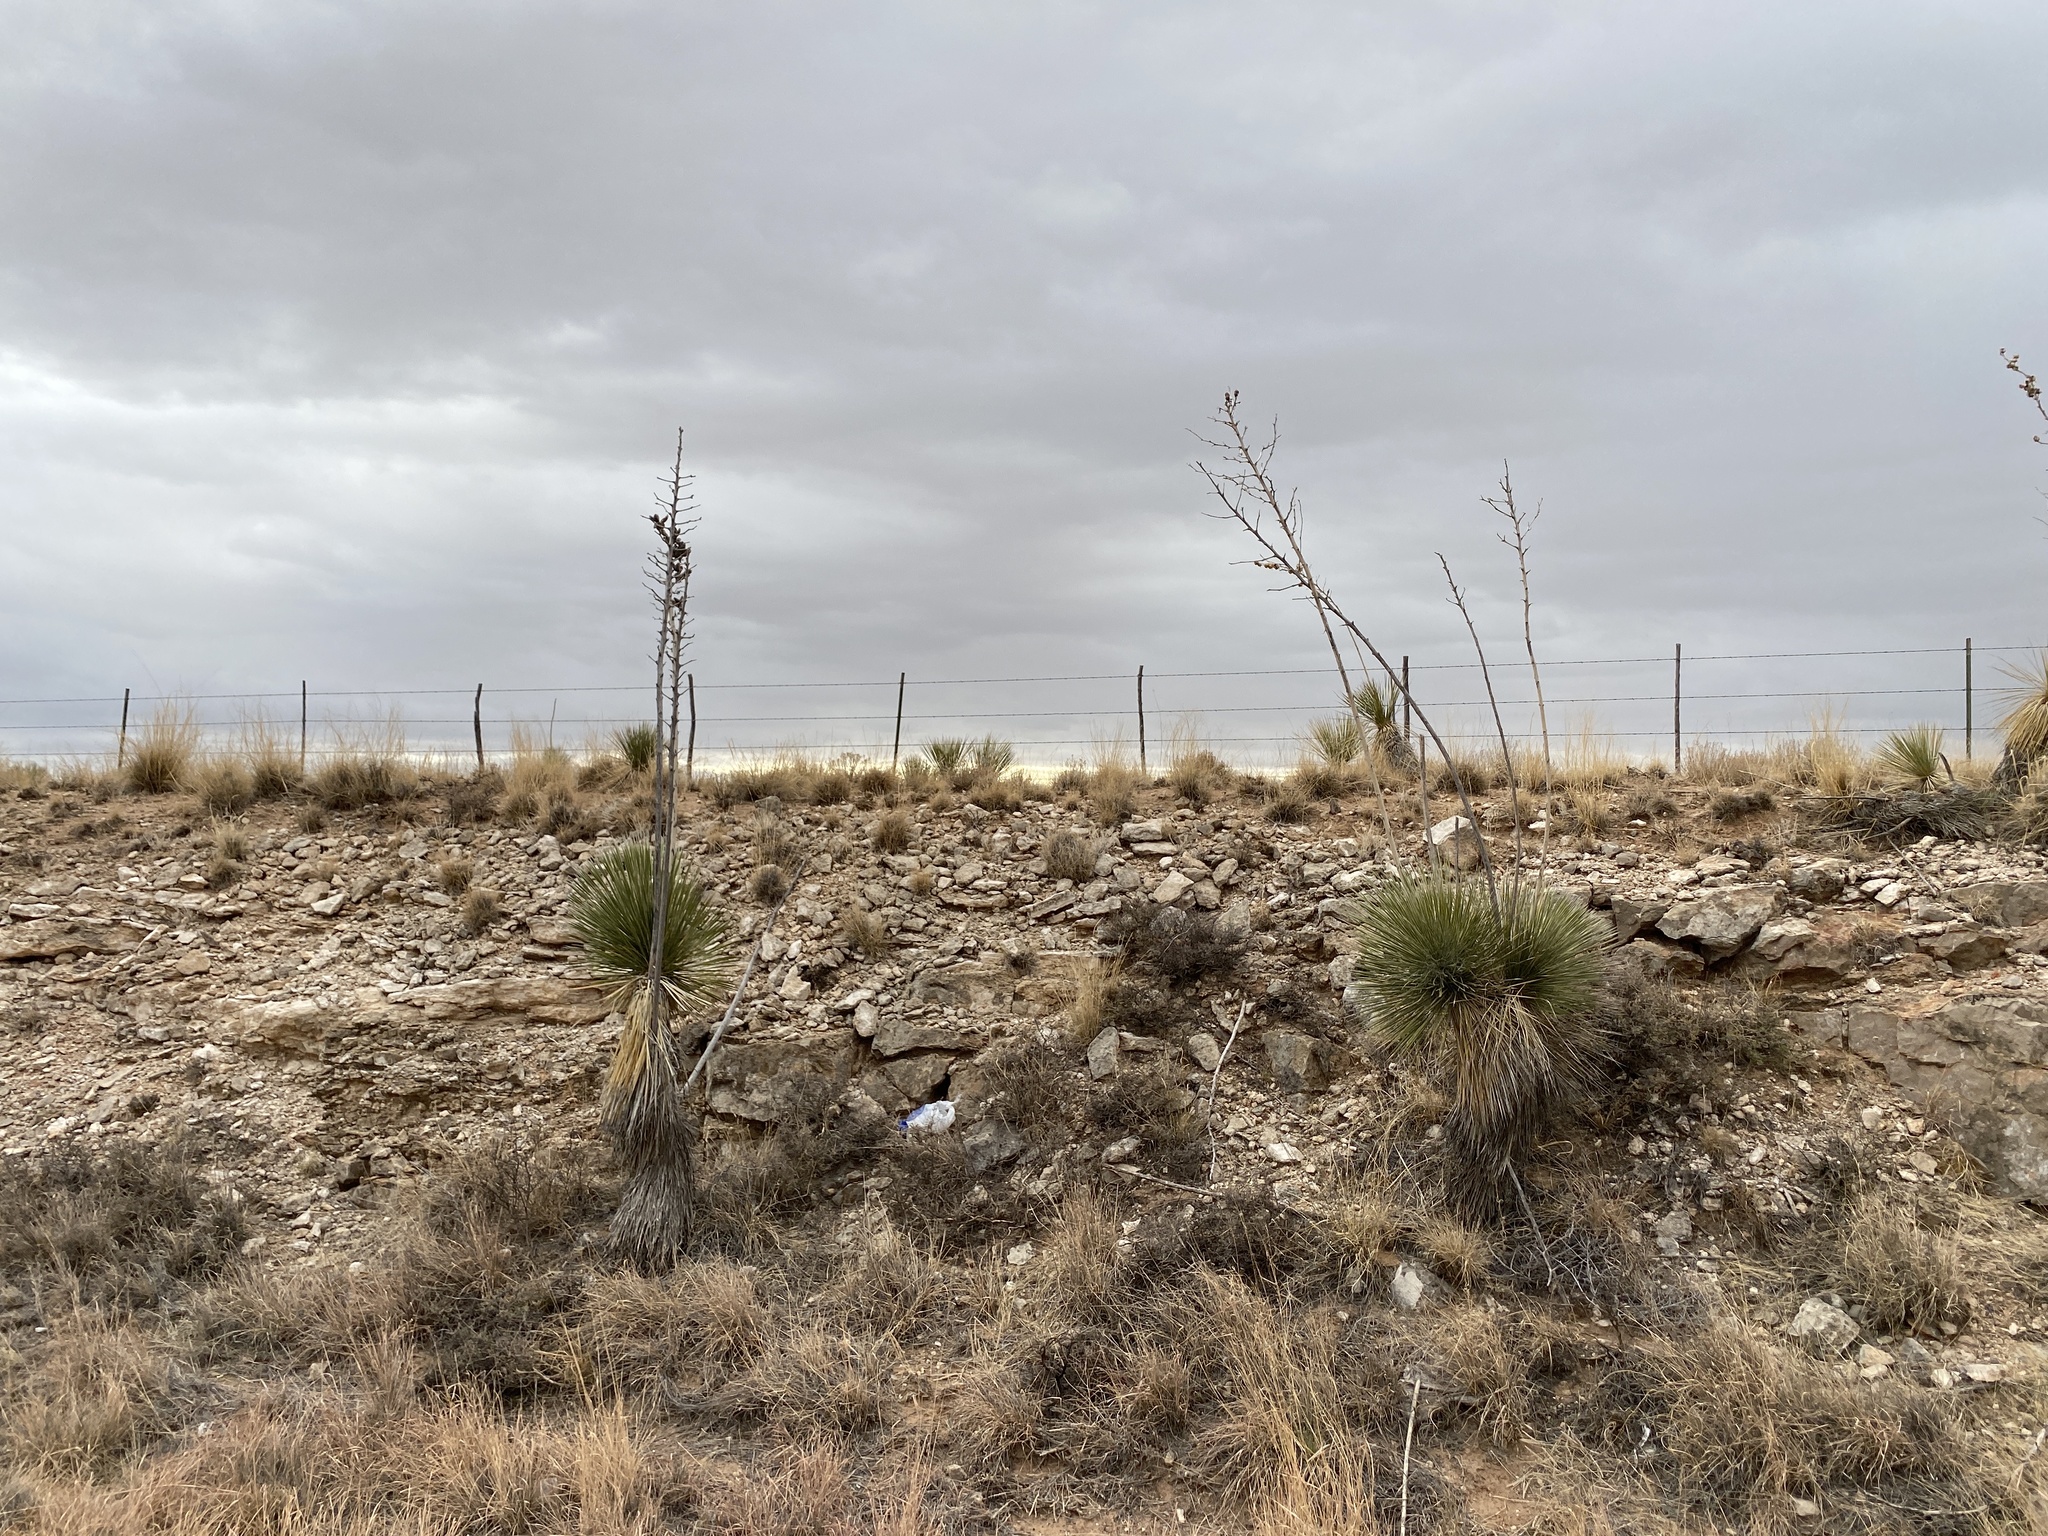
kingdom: Plantae
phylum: Tracheophyta
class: Liliopsida
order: Asparagales
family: Asparagaceae
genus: Yucca
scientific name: Yucca elata
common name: Palmella
